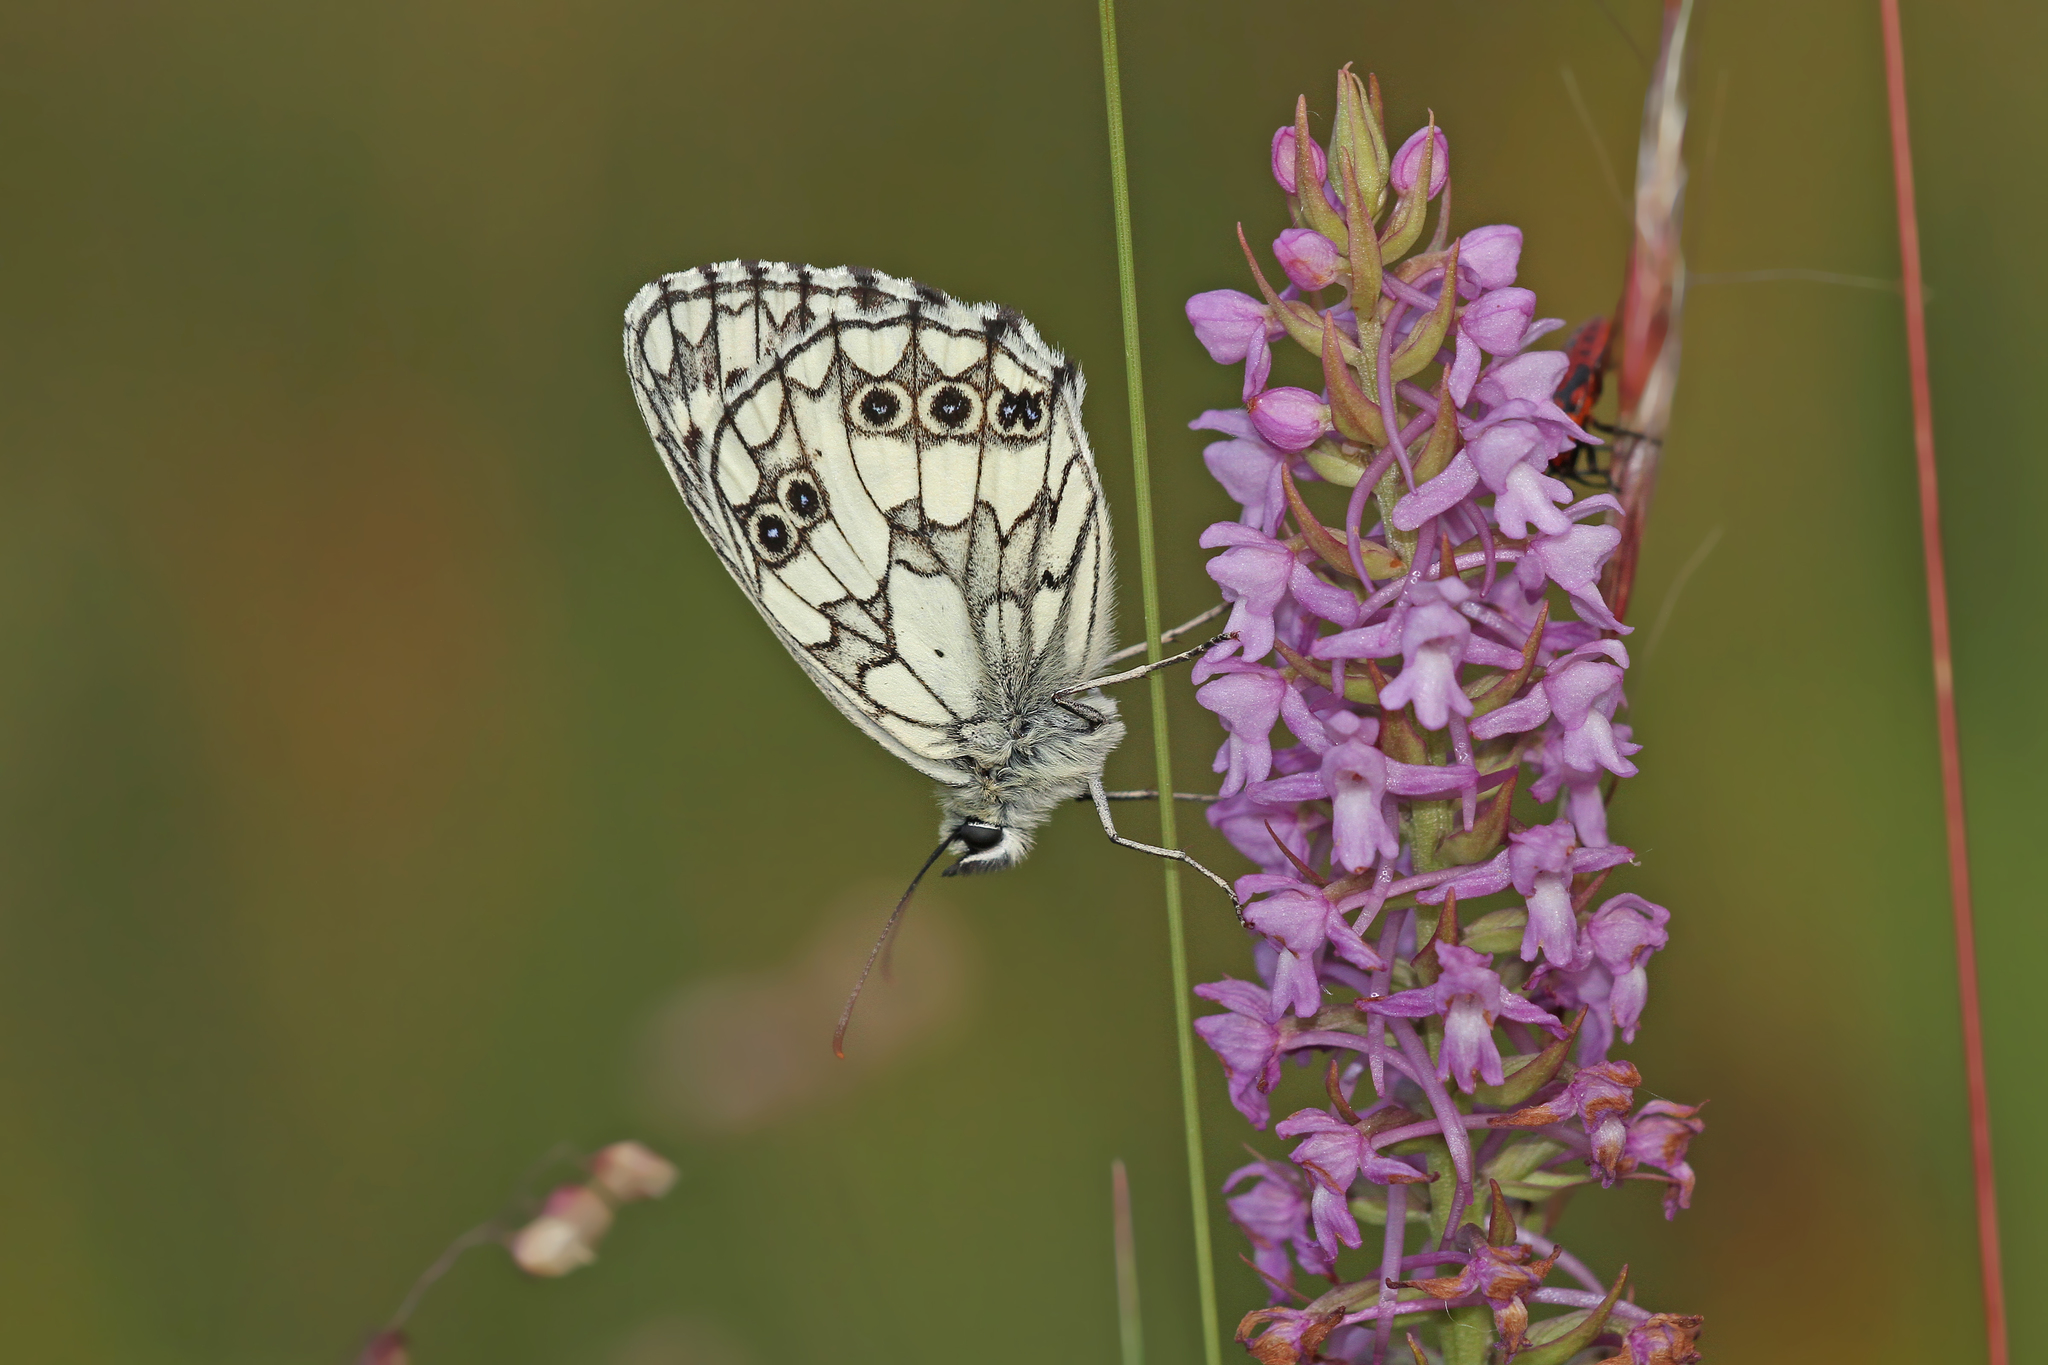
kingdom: Animalia
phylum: Arthropoda
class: Insecta
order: Lepidoptera
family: Nymphalidae
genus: Melanargia
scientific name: Melanargia galathea
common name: Marbled white
